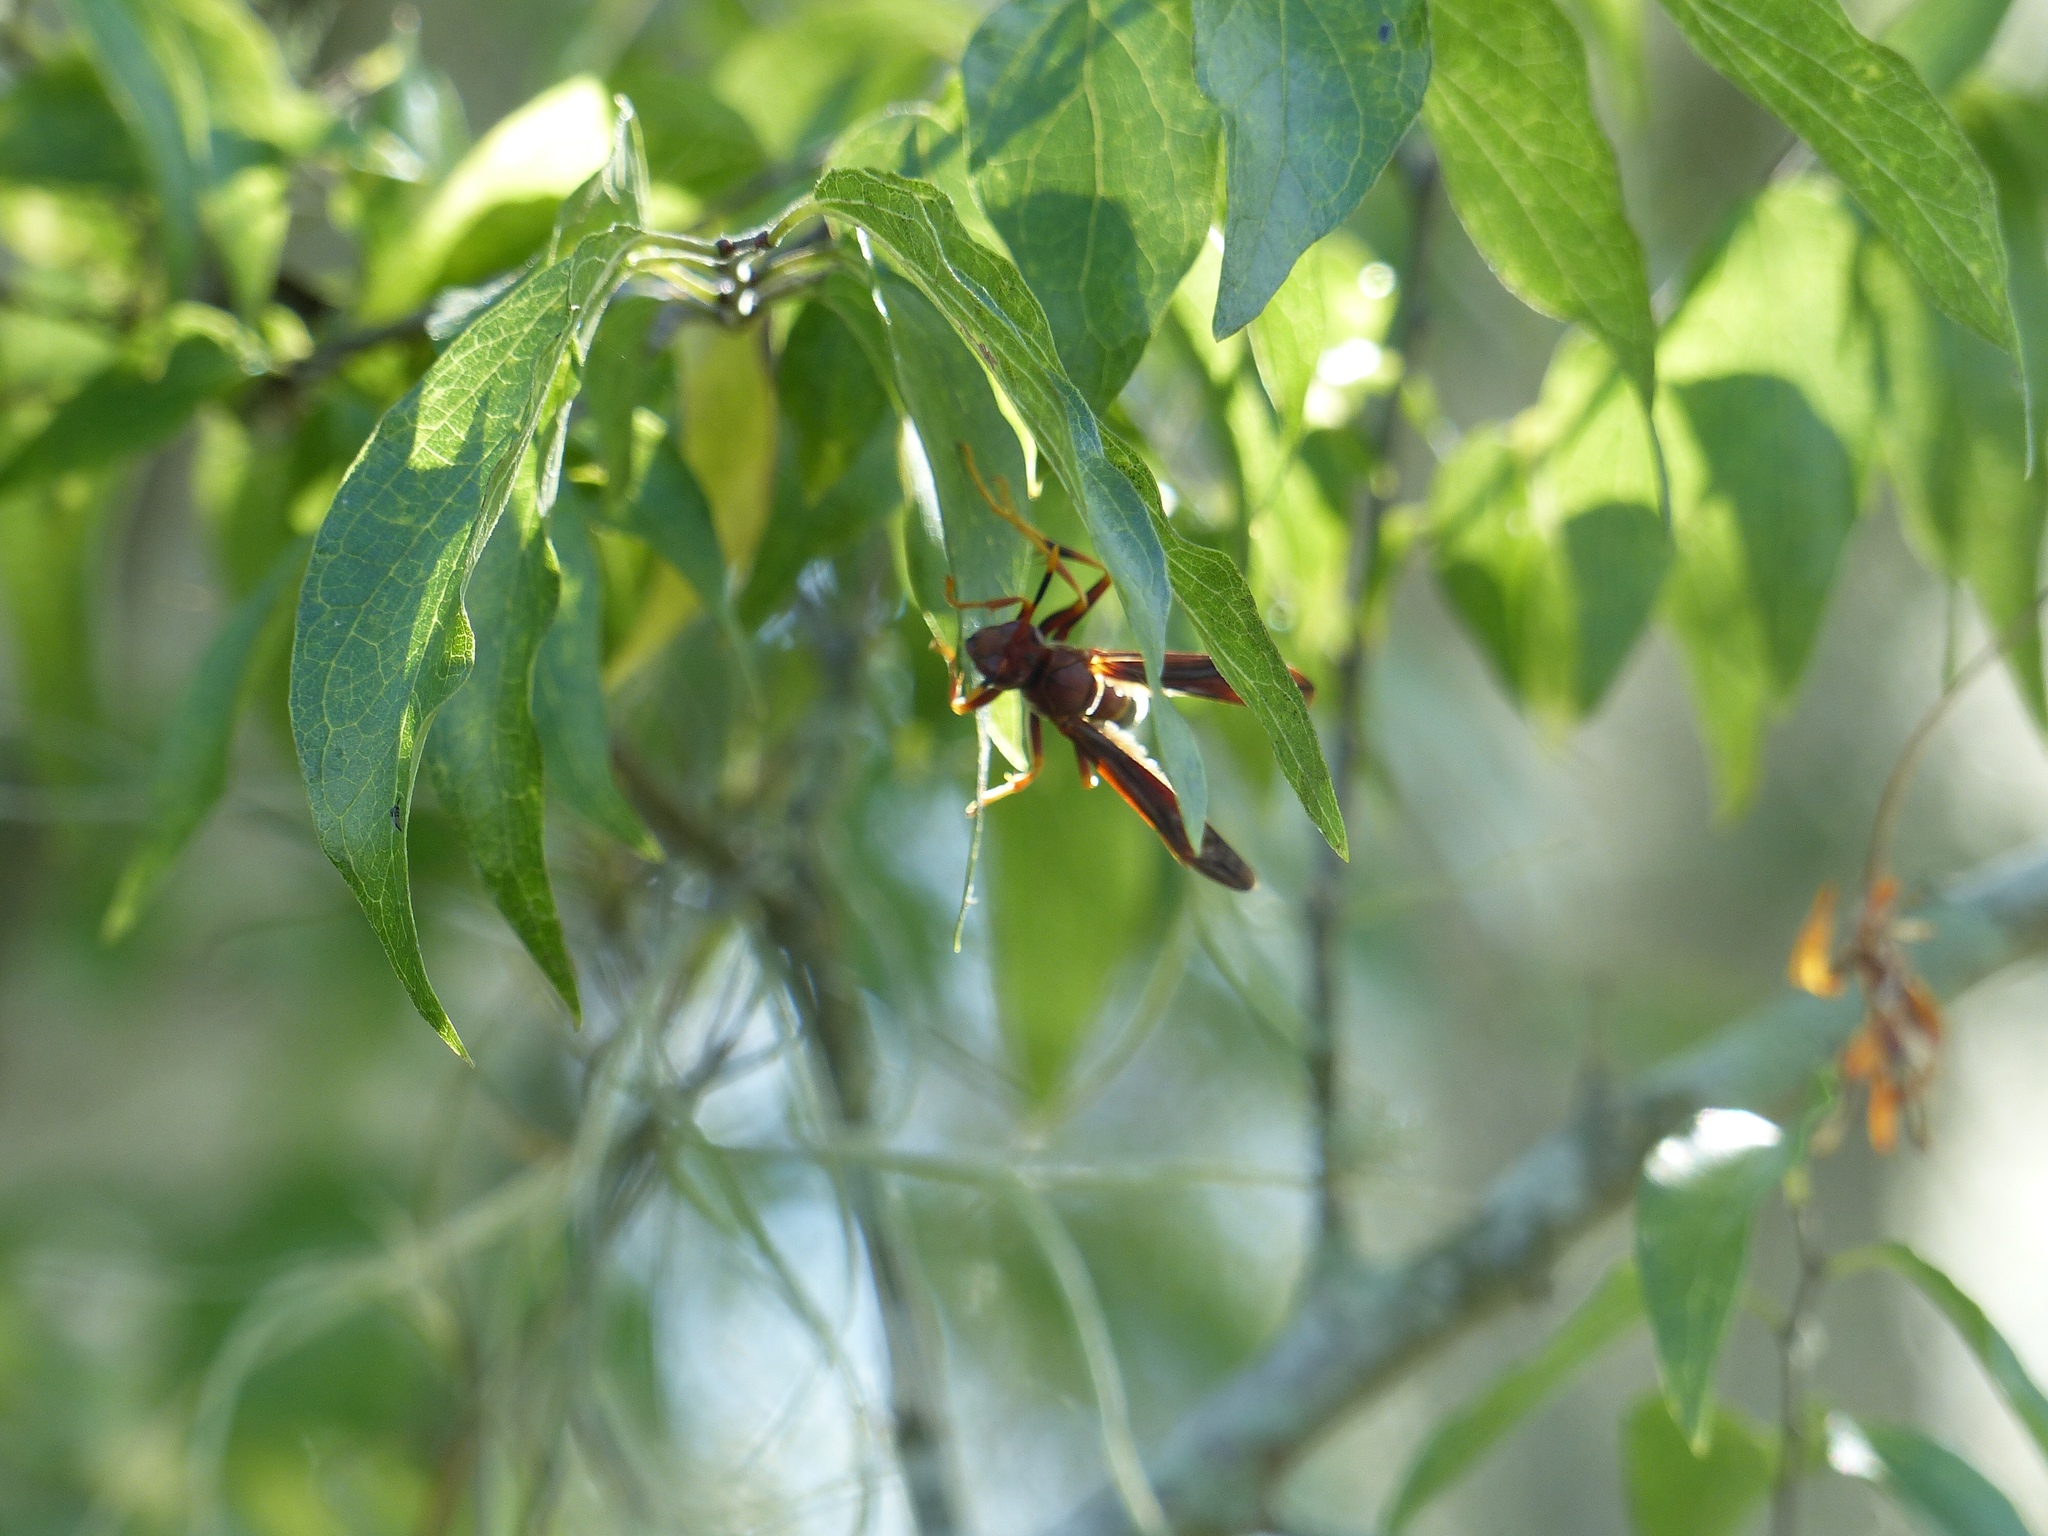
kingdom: Animalia
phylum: Arthropoda
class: Insecta
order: Hymenoptera
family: Eumenidae
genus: Polistes
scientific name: Polistes annularis
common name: Ringed paper wasp
